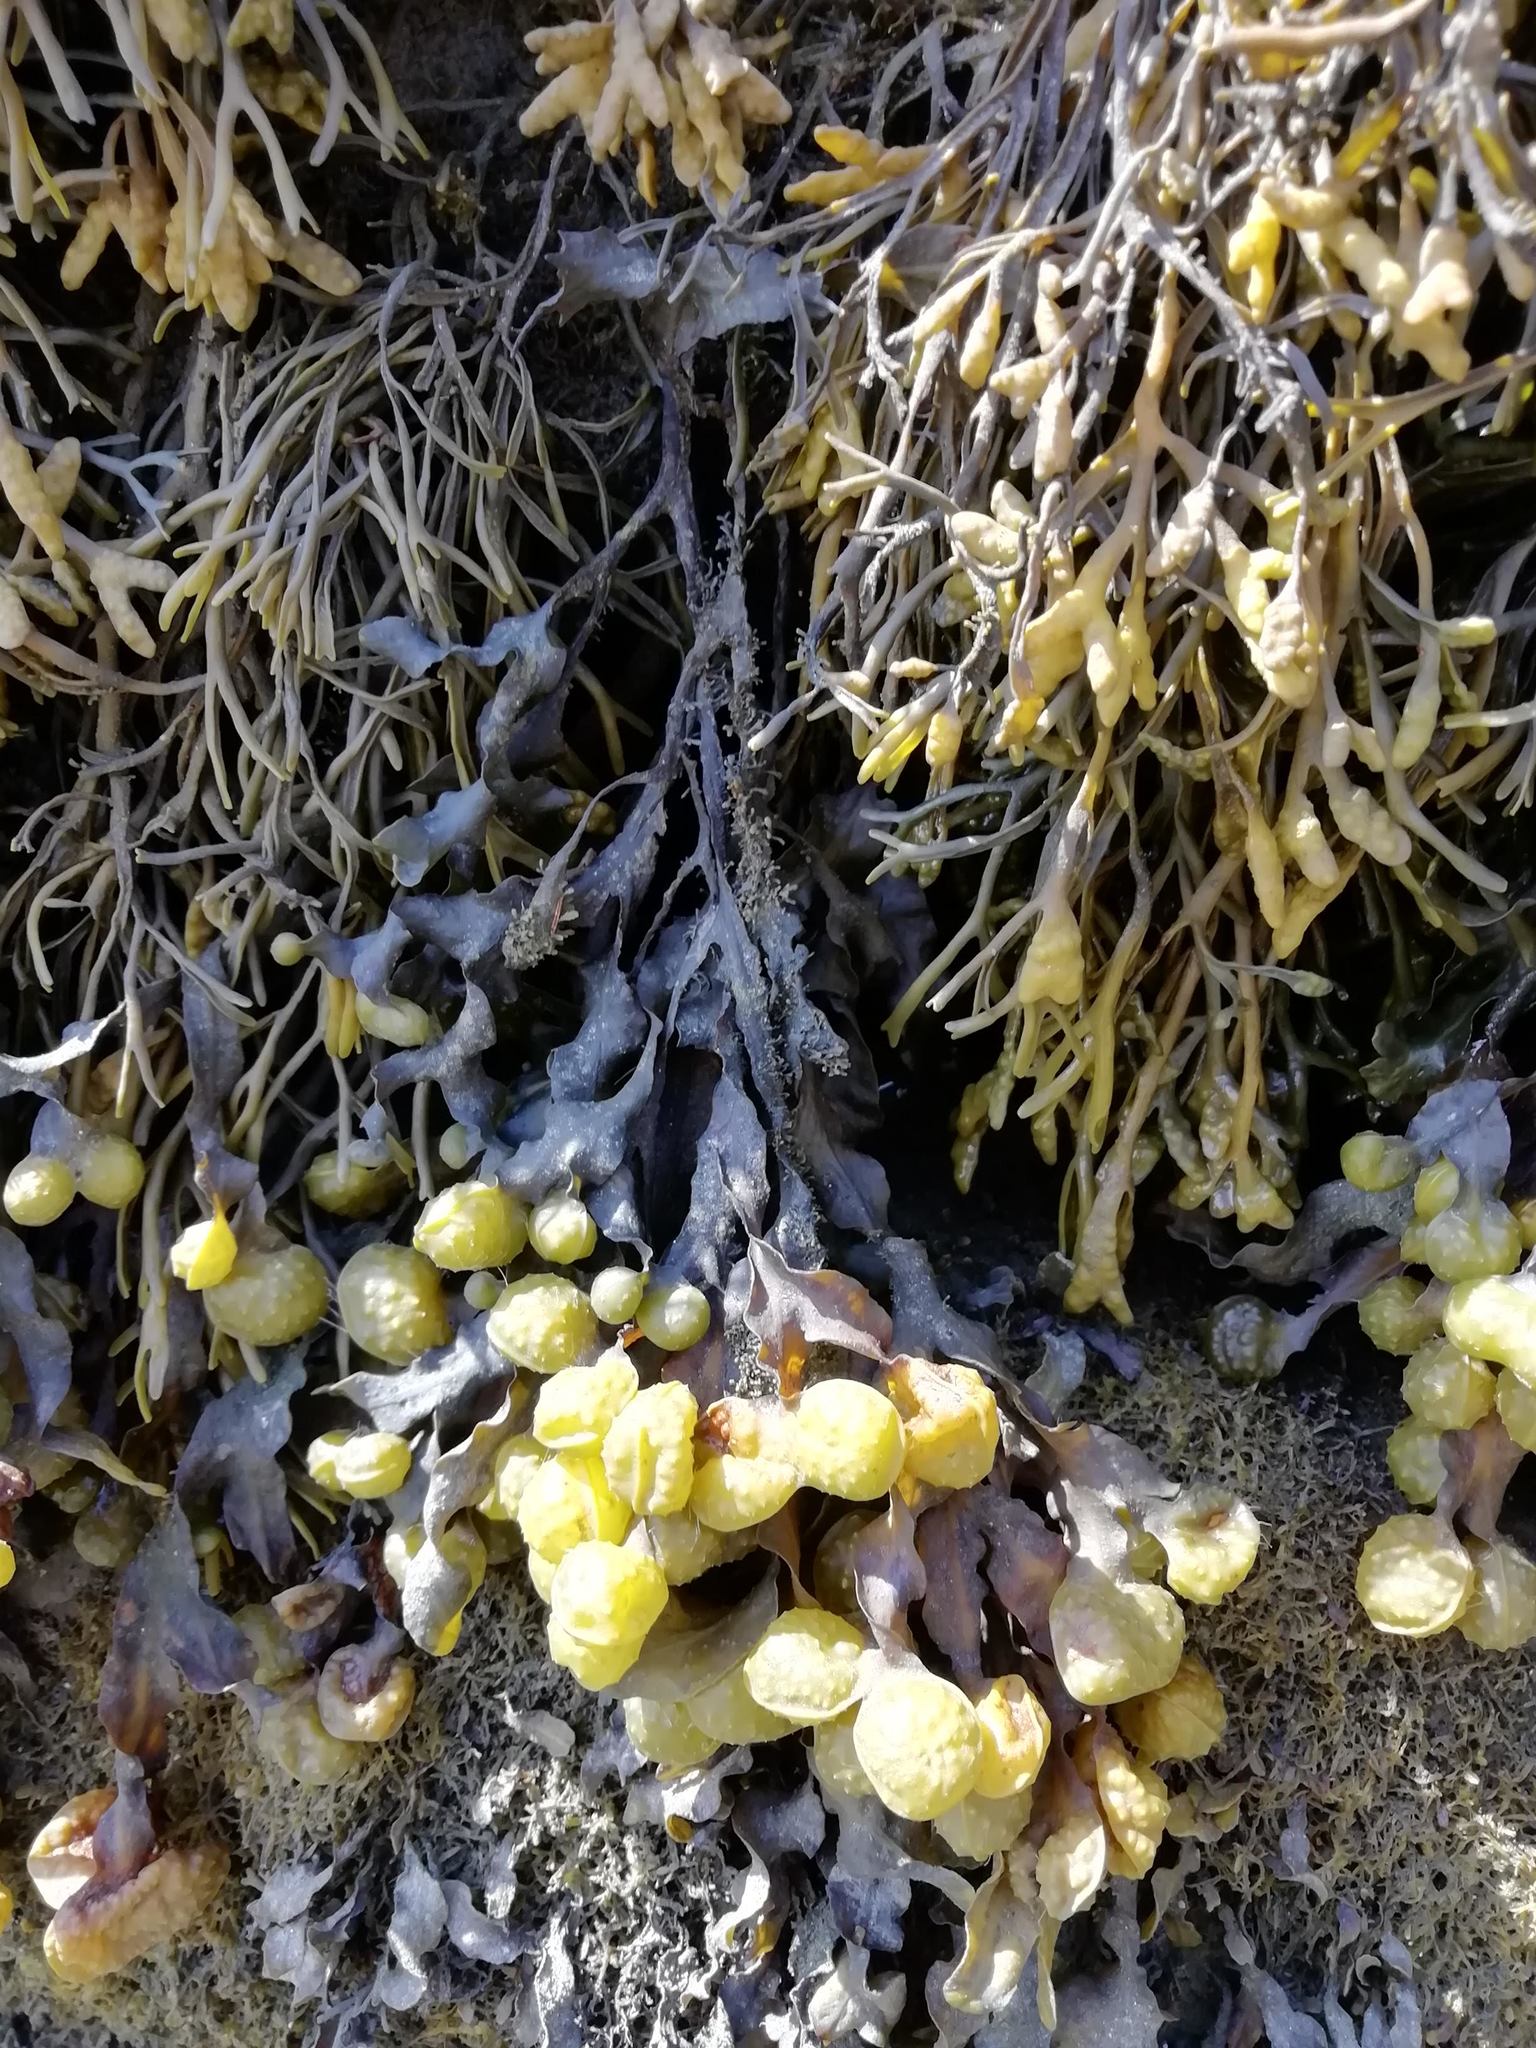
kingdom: Chromista
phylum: Ochrophyta
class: Phaeophyceae
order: Fucales
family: Fucaceae
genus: Fucus
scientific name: Fucus spiralis
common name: Spiral wrack
